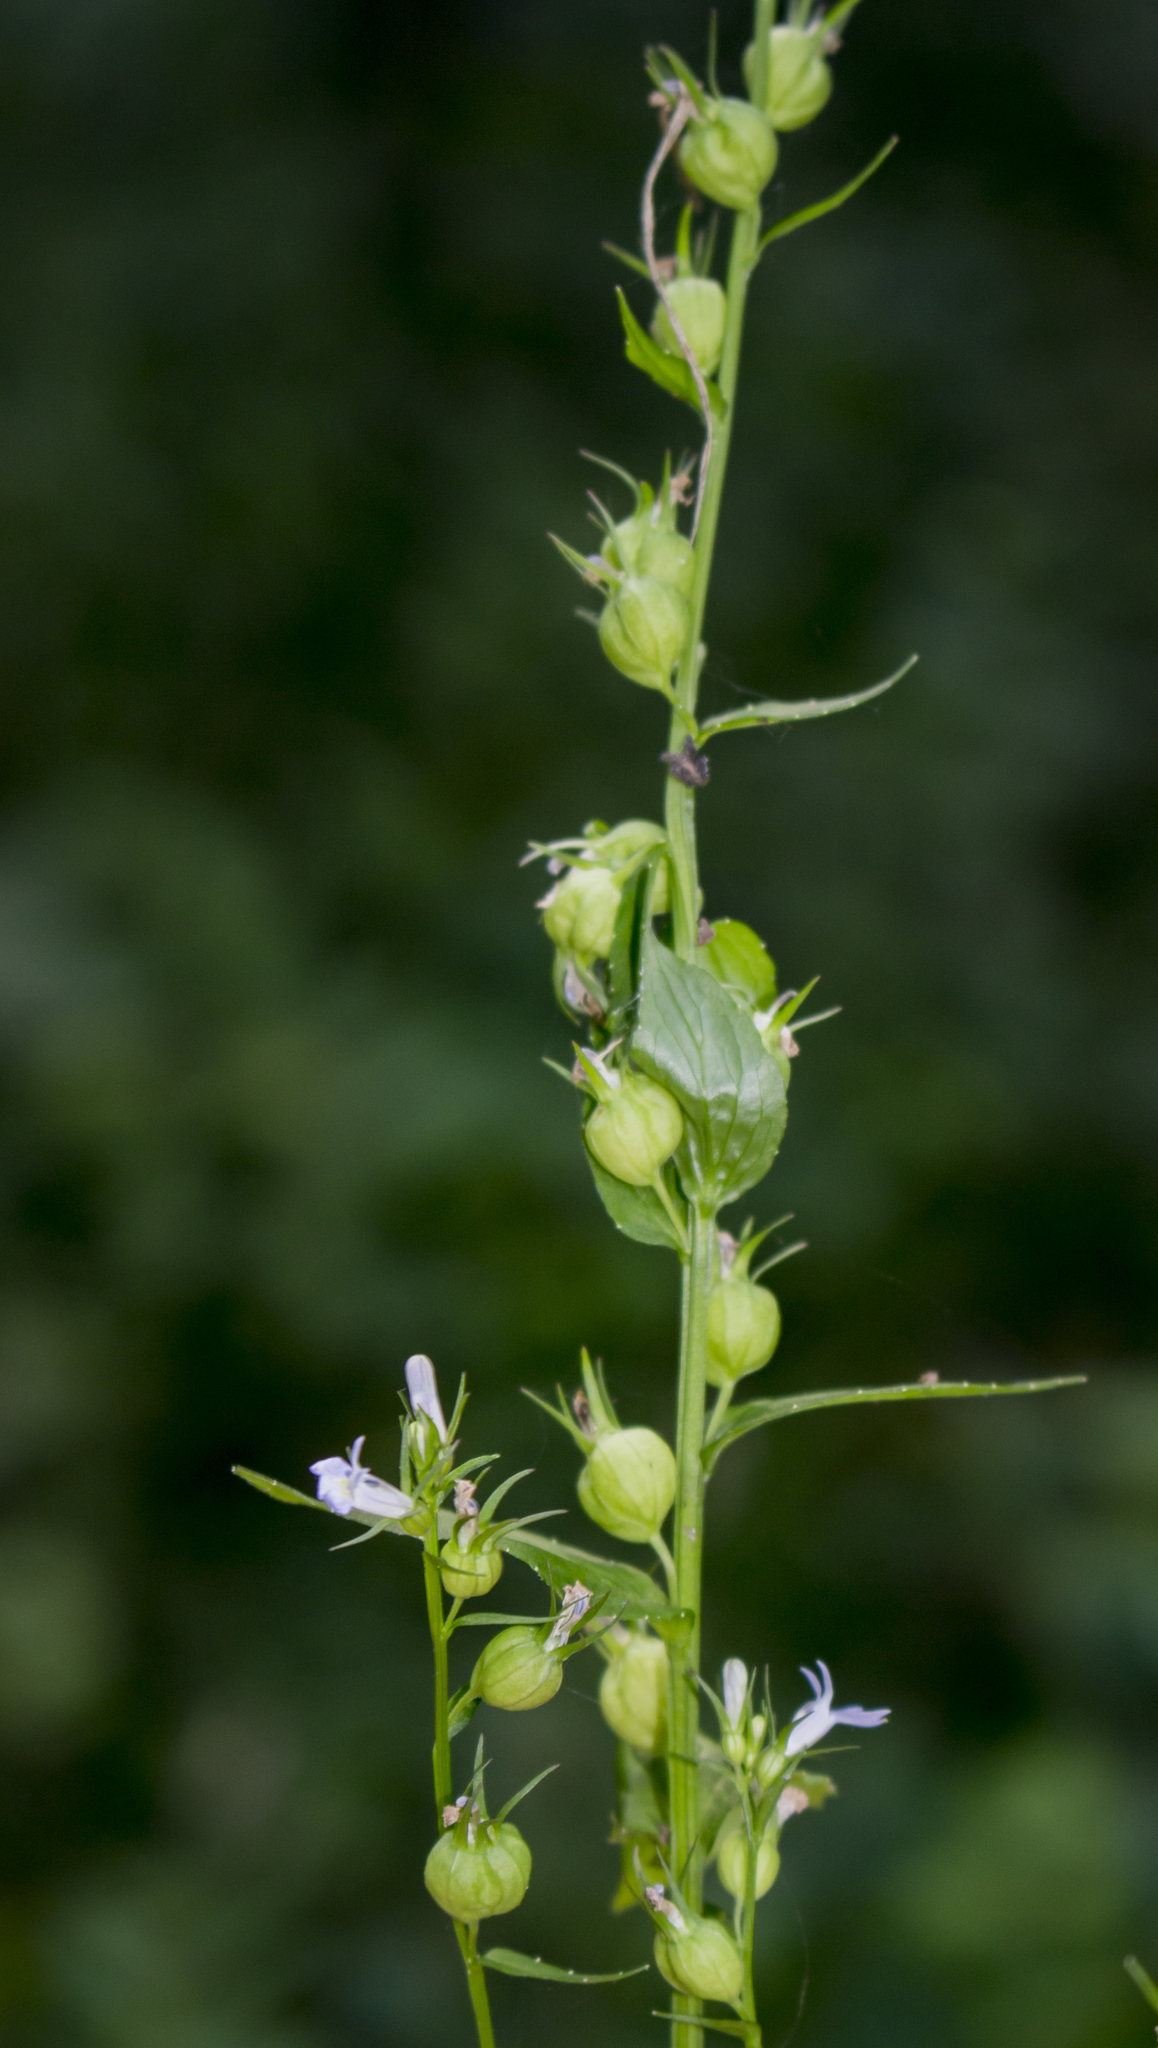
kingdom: Plantae
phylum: Tracheophyta
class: Magnoliopsida
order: Asterales
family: Campanulaceae
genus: Lobelia
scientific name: Lobelia inflata
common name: Indian tobacco
